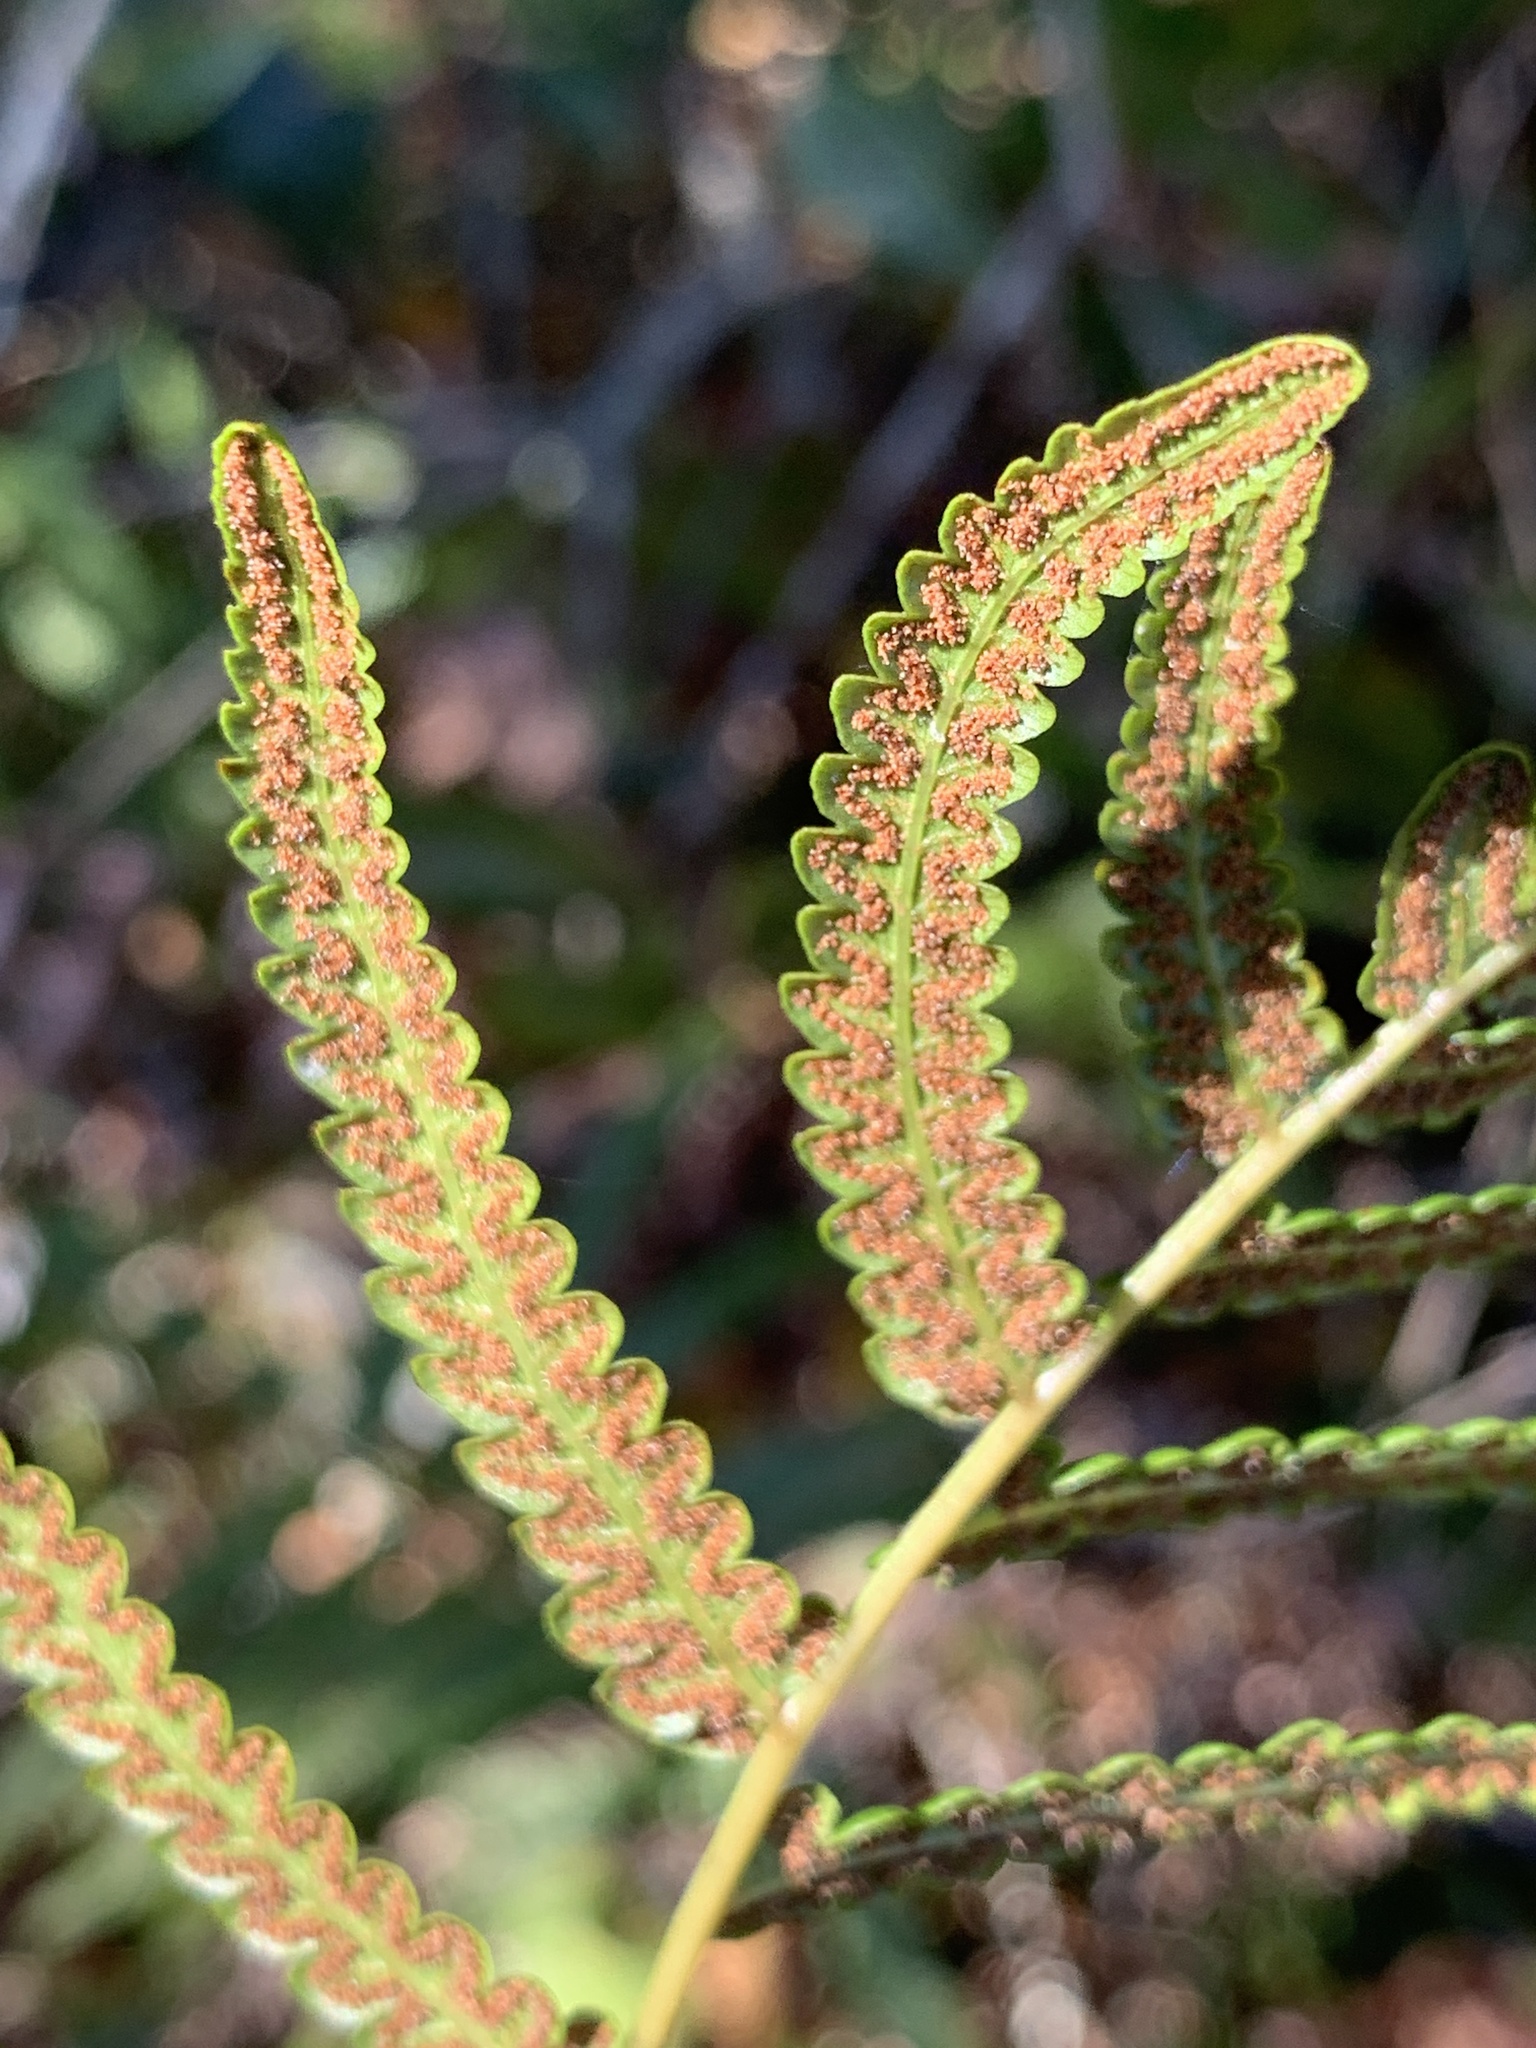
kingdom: Plantae
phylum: Tracheophyta
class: Polypodiopsida
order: Polypodiales
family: Thelypteridaceae
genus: Cyclosorus
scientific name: Cyclosorus interruptus
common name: Neke fern
